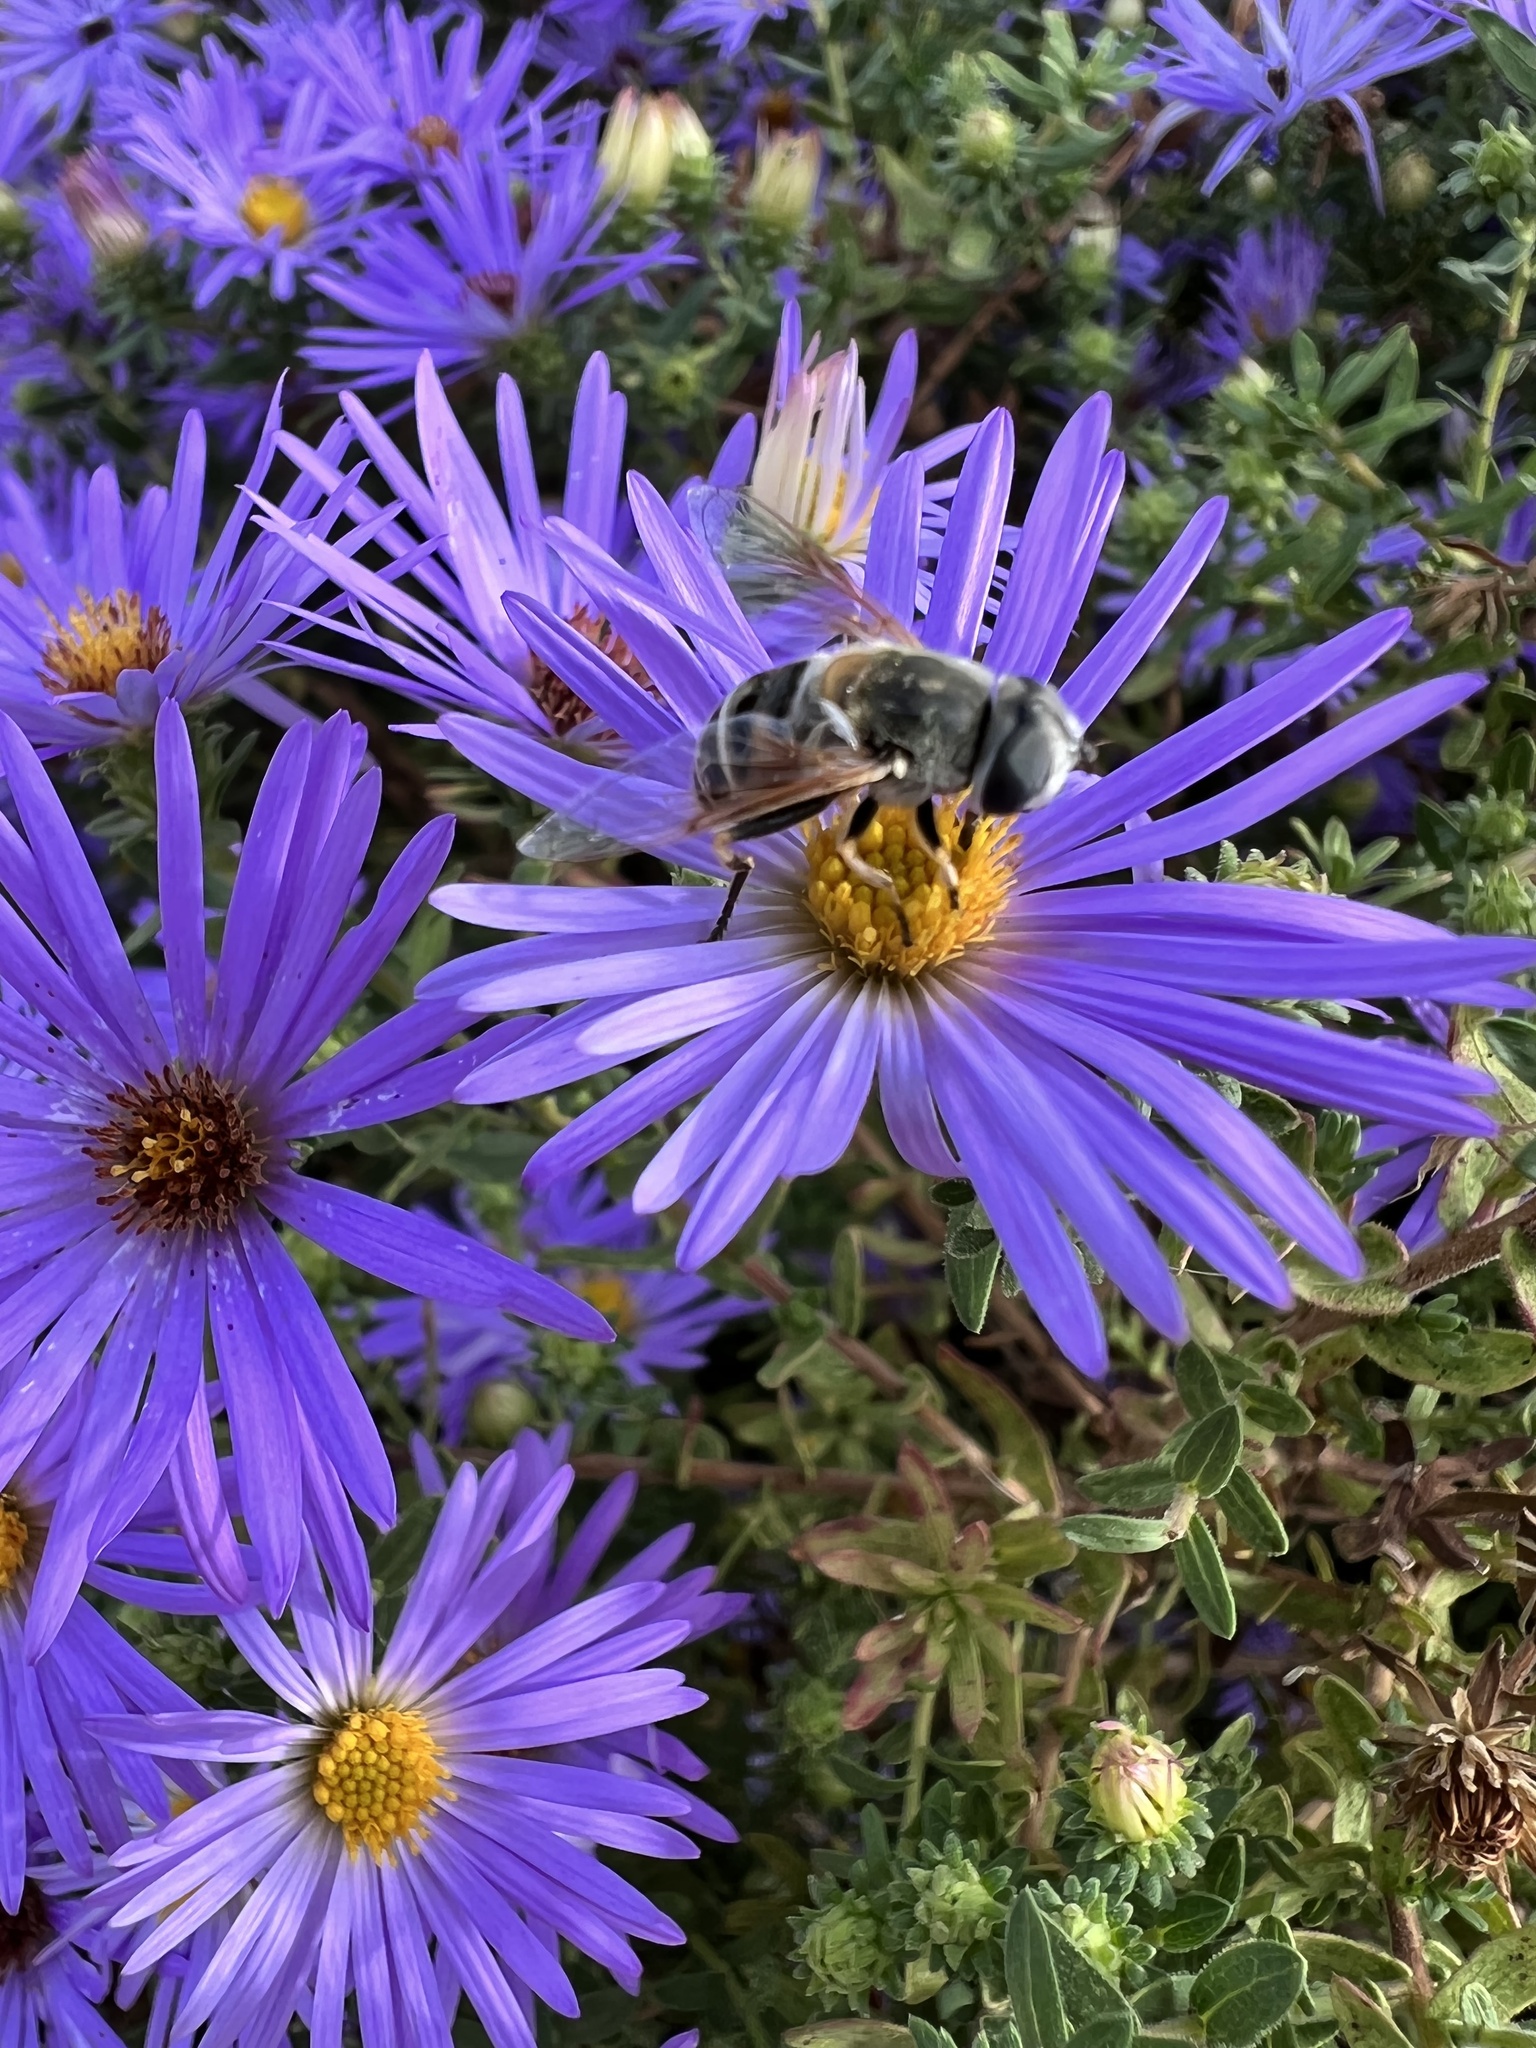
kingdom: Animalia
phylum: Arthropoda
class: Insecta
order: Diptera
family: Syrphidae
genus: Eristalis
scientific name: Eristalis stipator
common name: Yellow-shouldered drone fly
